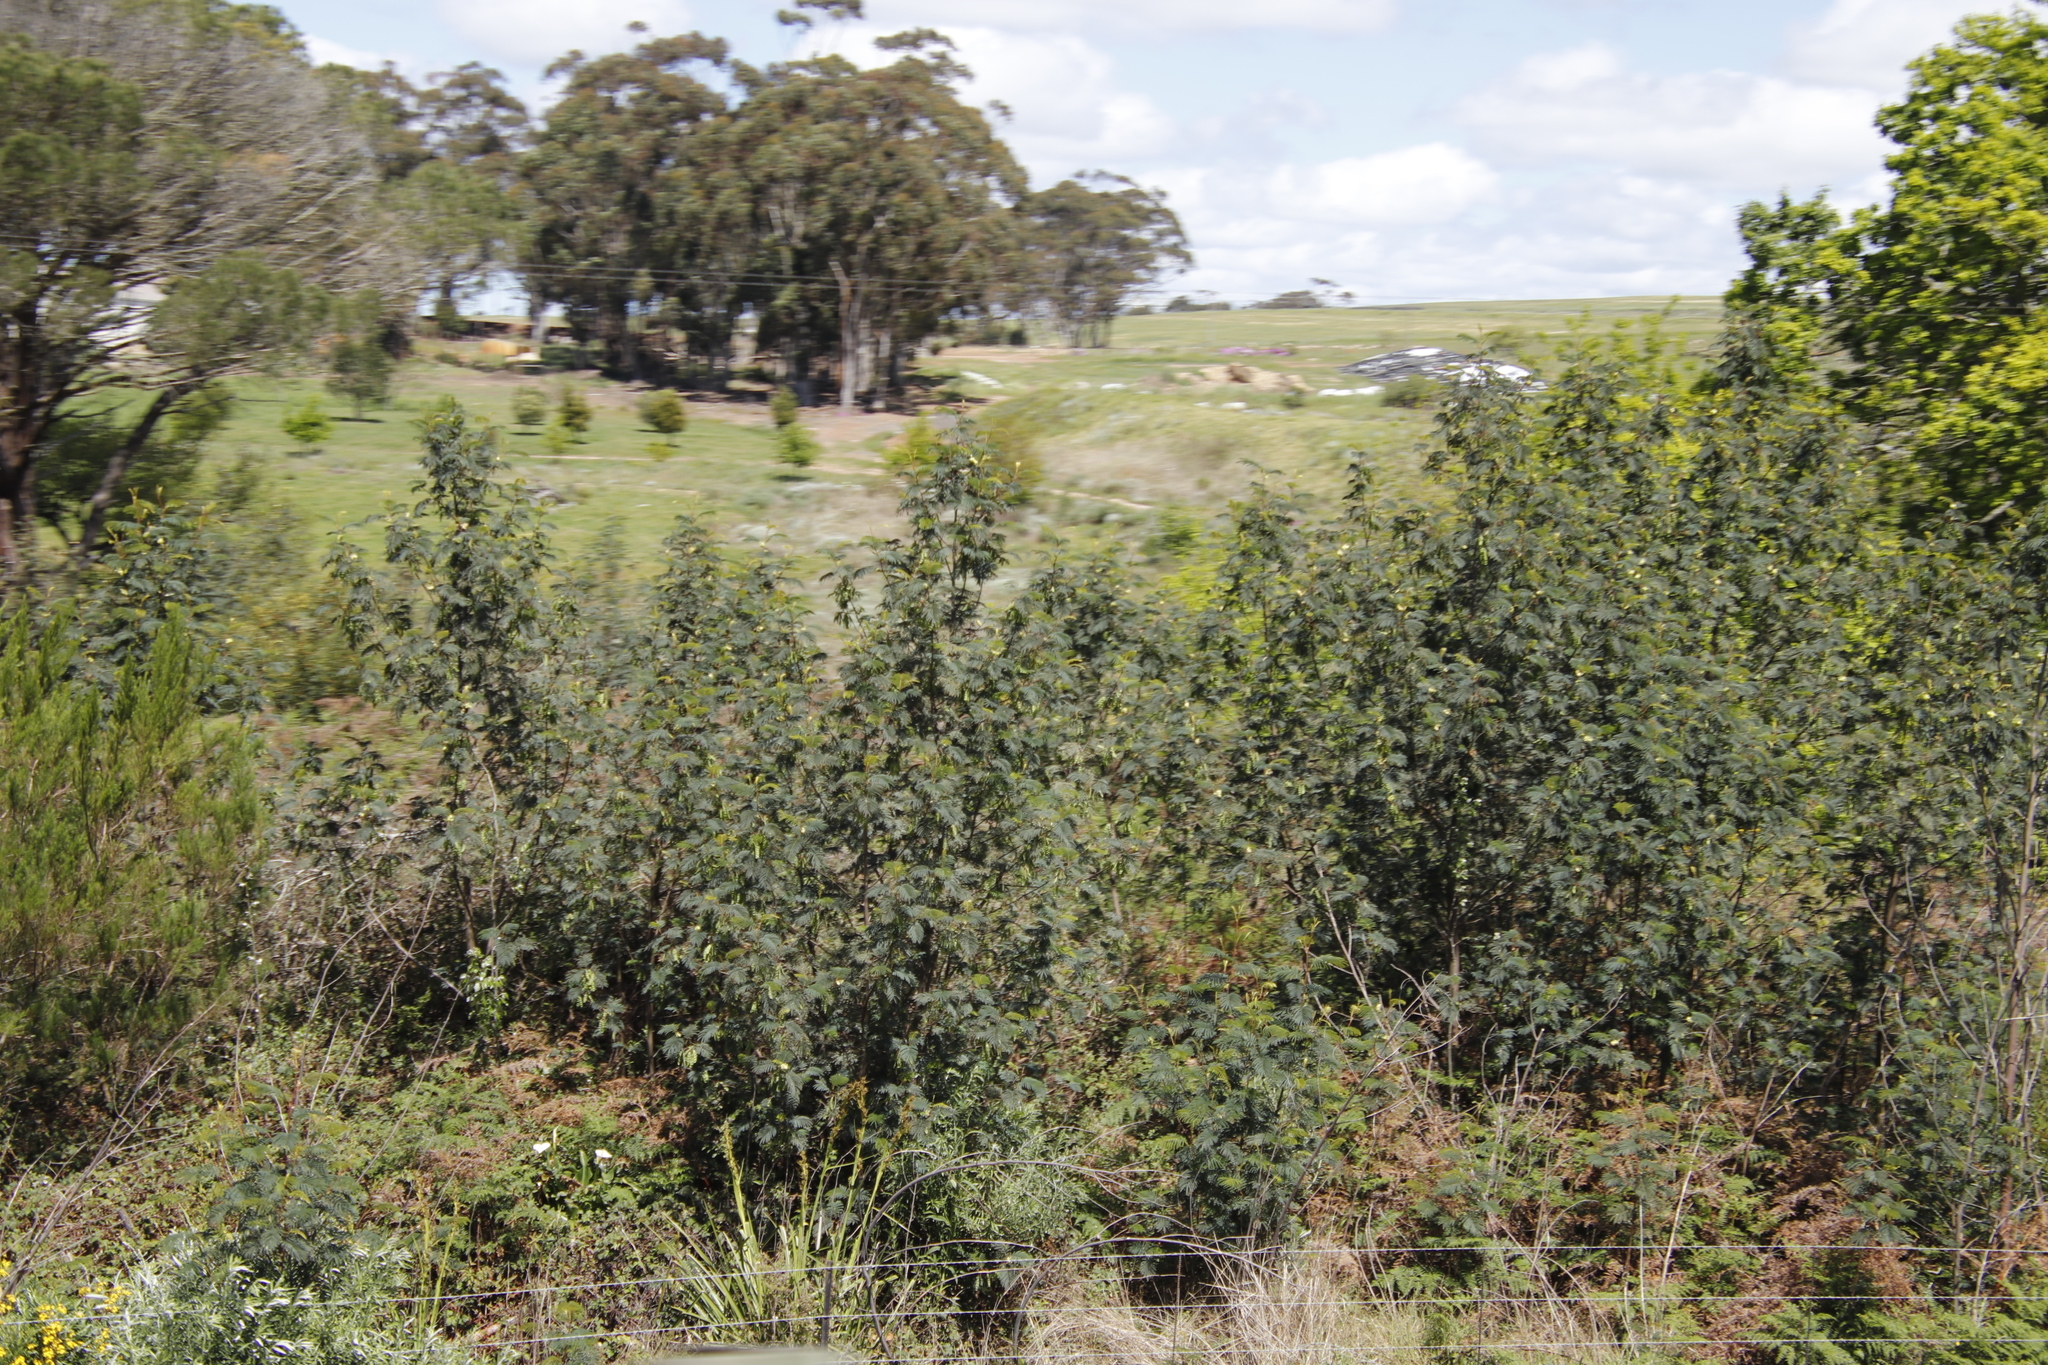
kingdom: Plantae
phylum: Tracheophyta
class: Magnoliopsida
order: Fabales
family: Fabaceae
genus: Paraserianthes
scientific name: Paraserianthes lophantha
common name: Plume albizia
